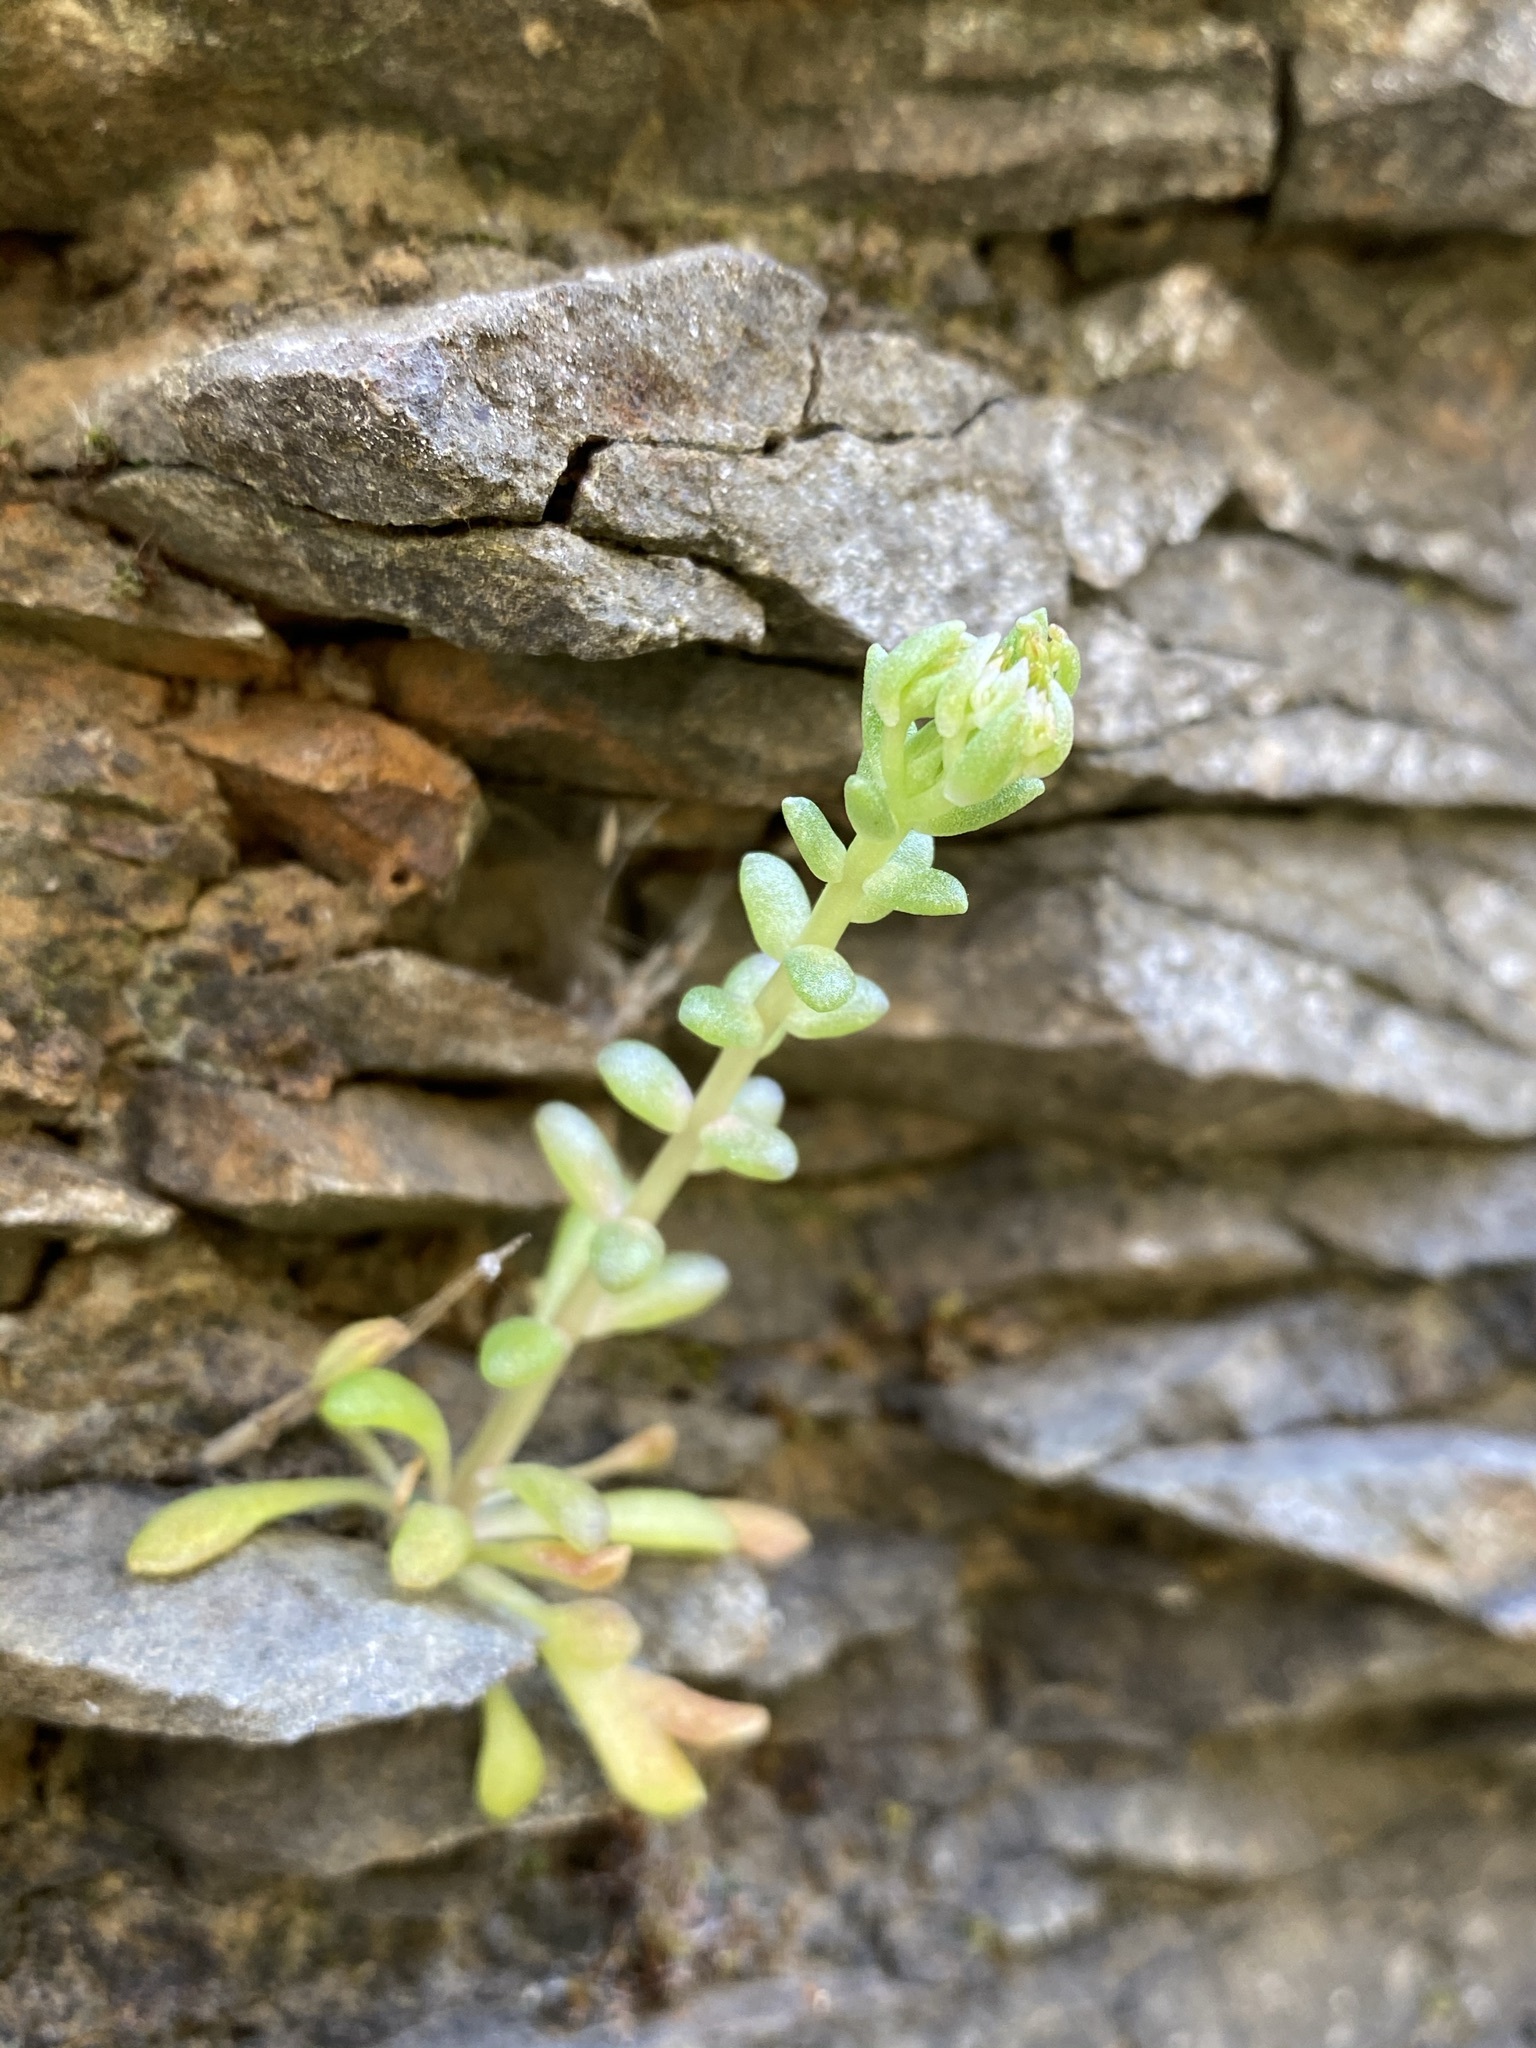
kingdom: Plantae
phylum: Tracheophyta
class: Magnoliopsida
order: Saxifragales
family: Crassulaceae
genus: Sedum
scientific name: Sedum leibergii
